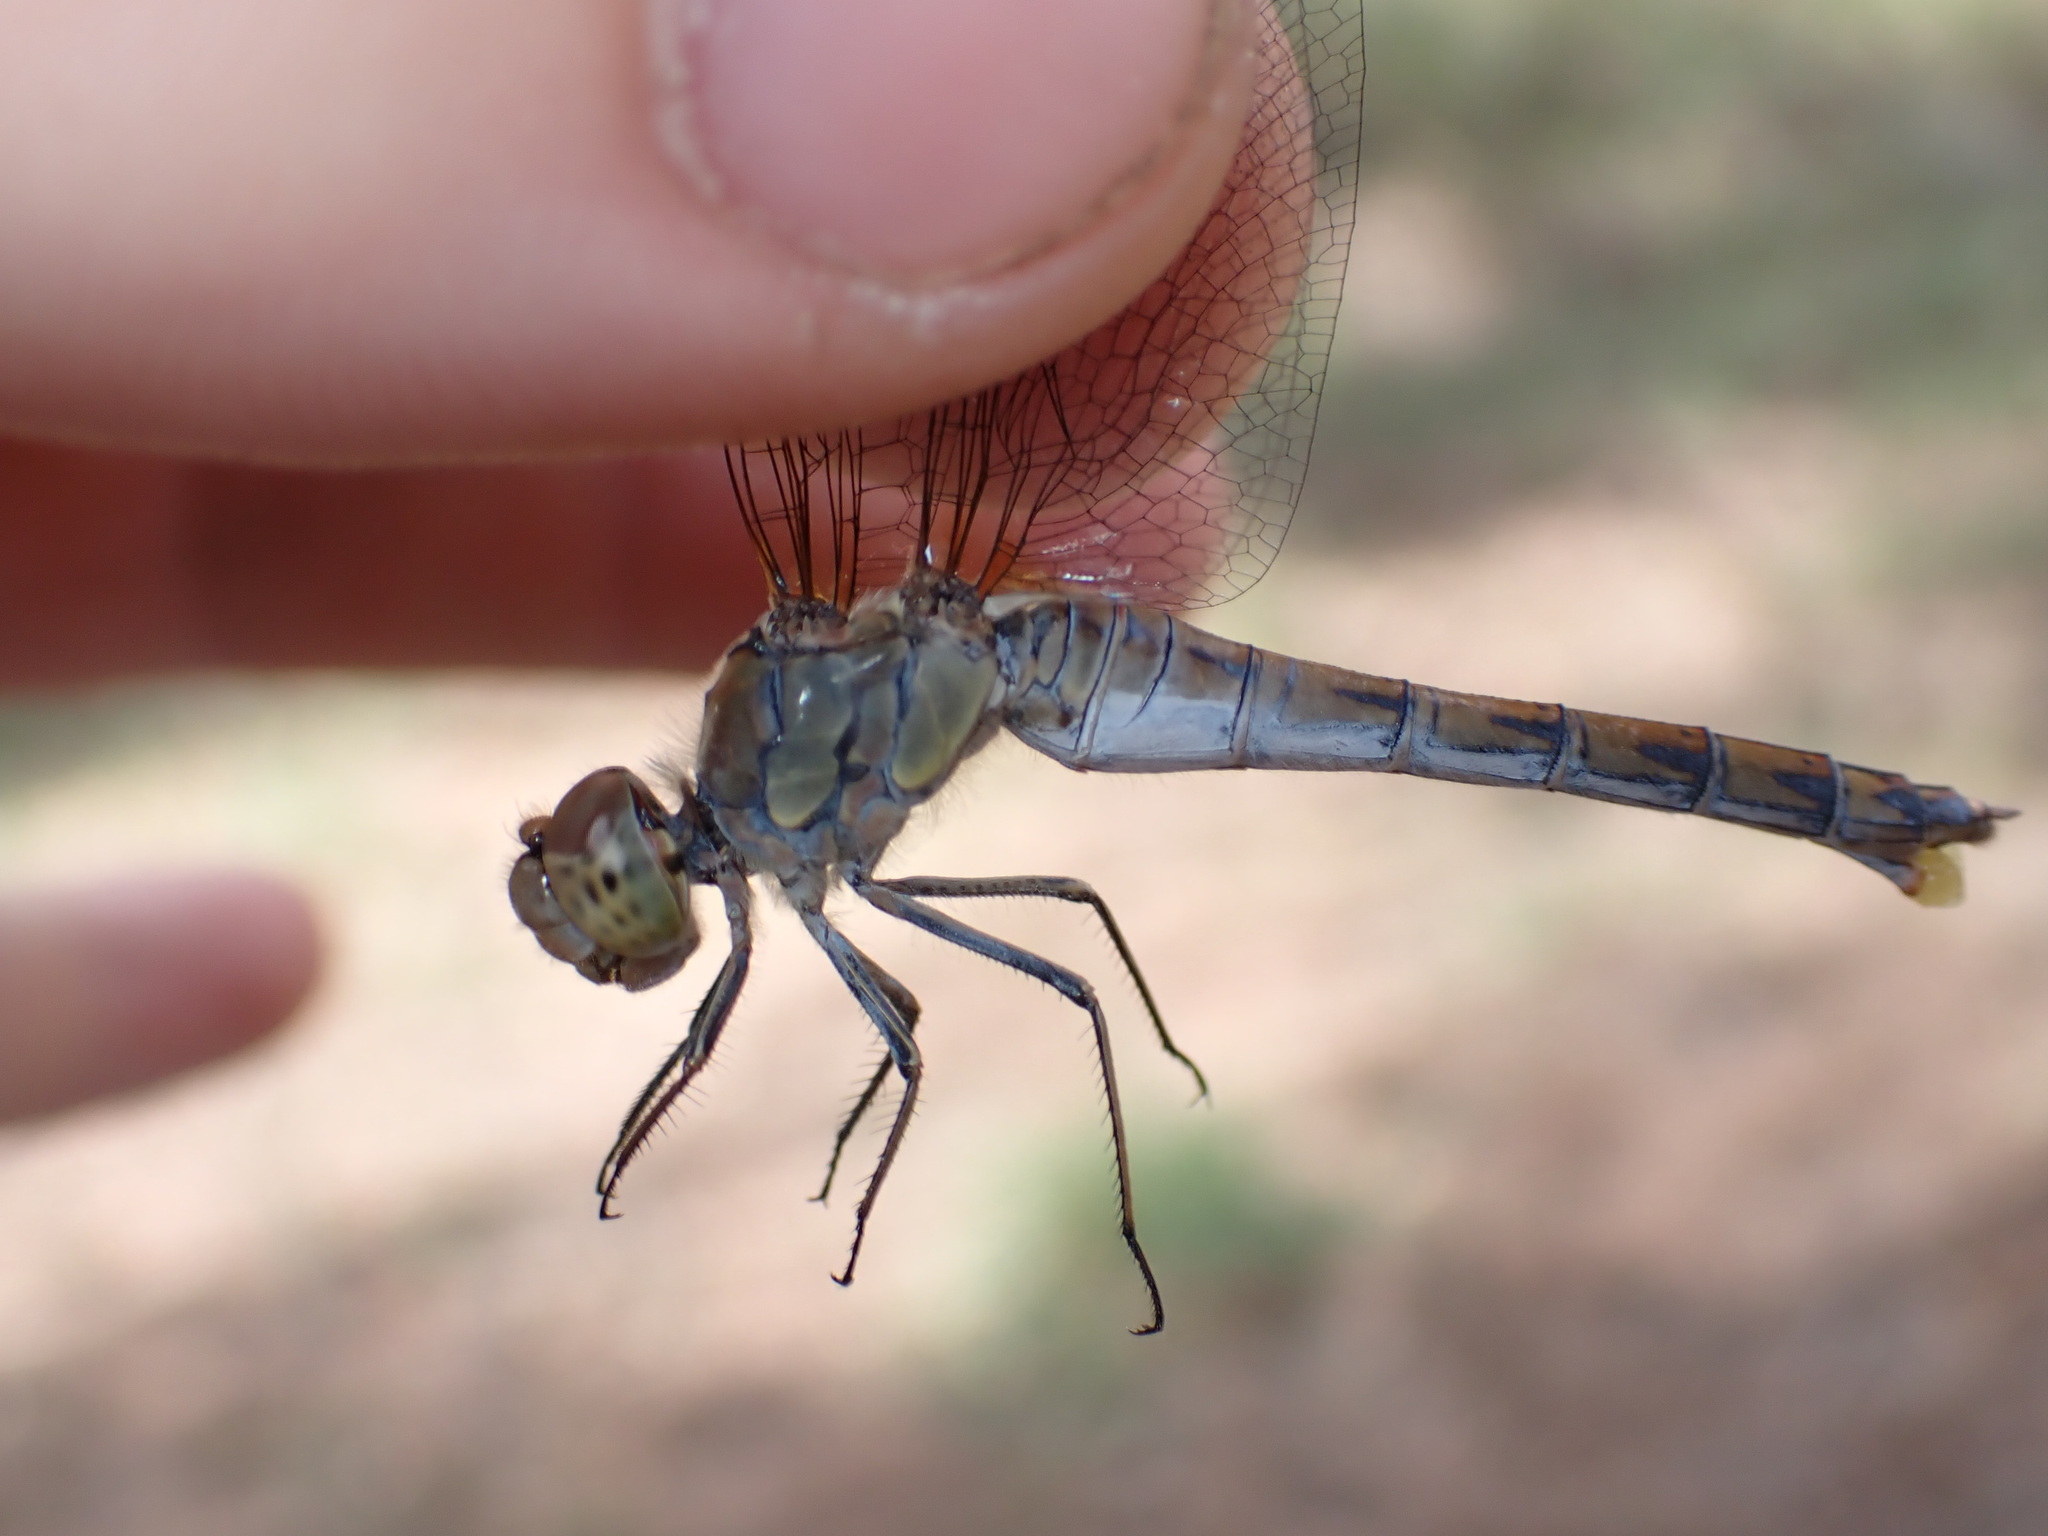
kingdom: Animalia
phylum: Arthropoda
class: Insecta
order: Odonata
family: Libellulidae
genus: Sympetrum
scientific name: Sympetrum striolatum
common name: Common darter
